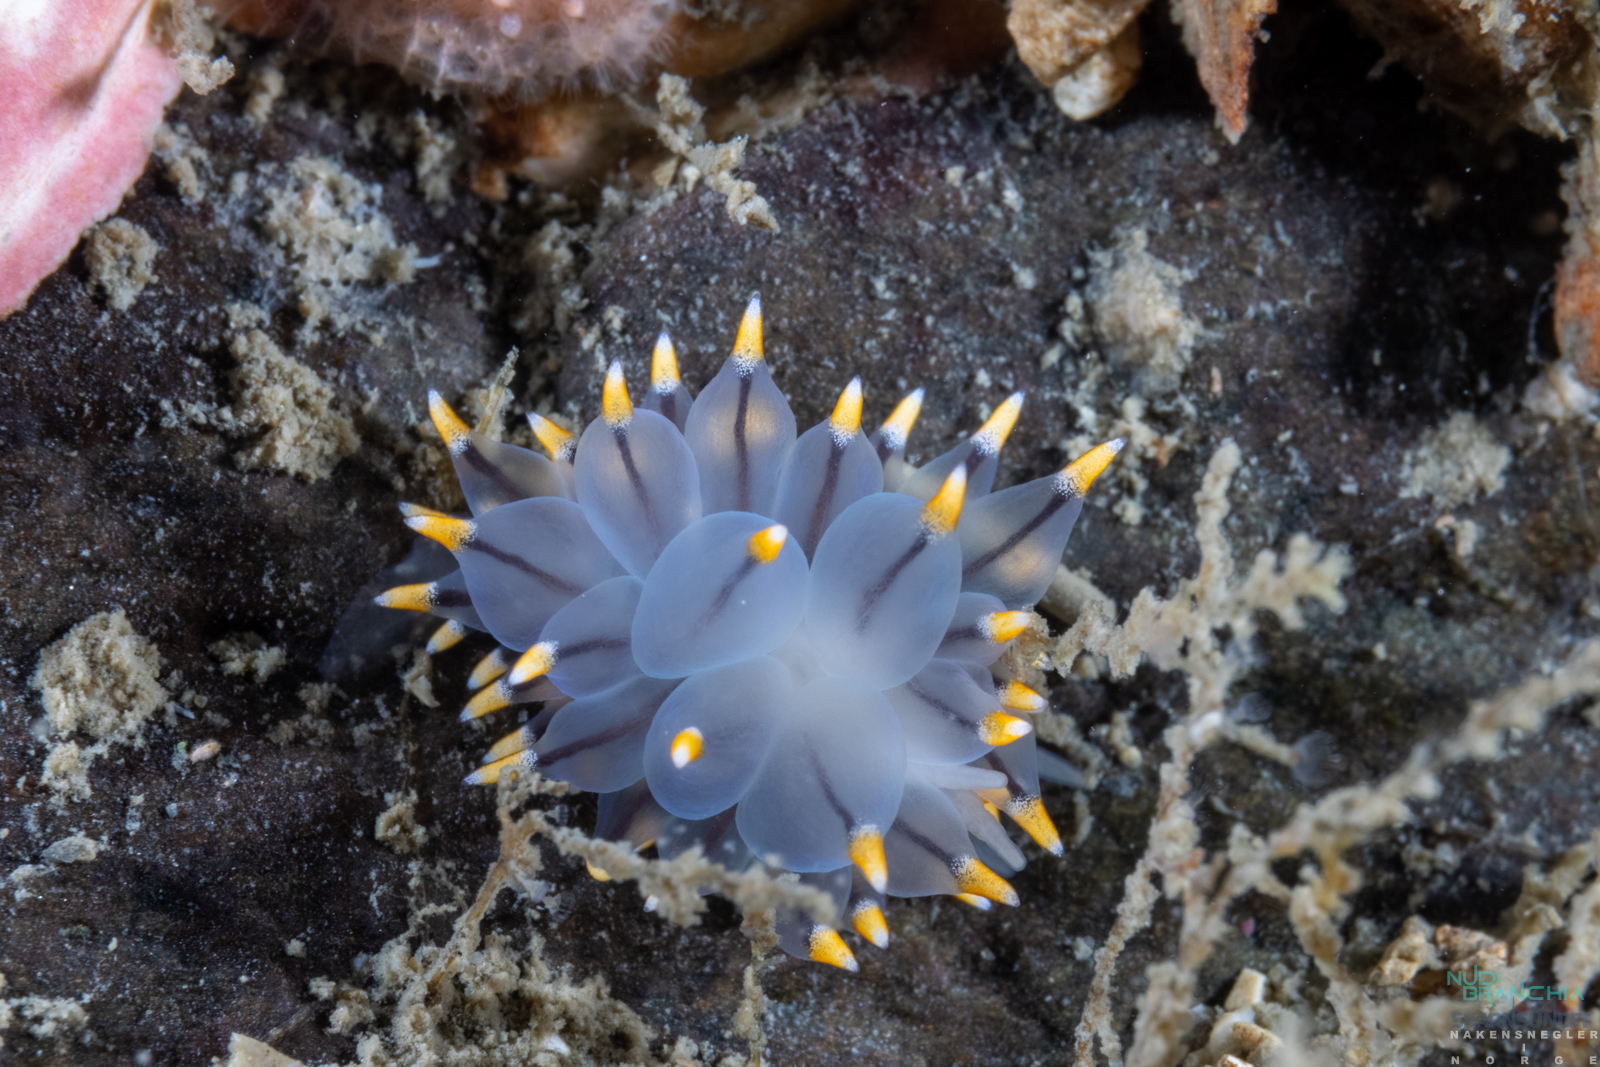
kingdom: Animalia
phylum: Mollusca
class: Gastropoda
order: Nudibranchia
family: Eubranchidae
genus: Eubranchus
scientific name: Eubranchus tricolor
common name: Painted balloon aeolis
